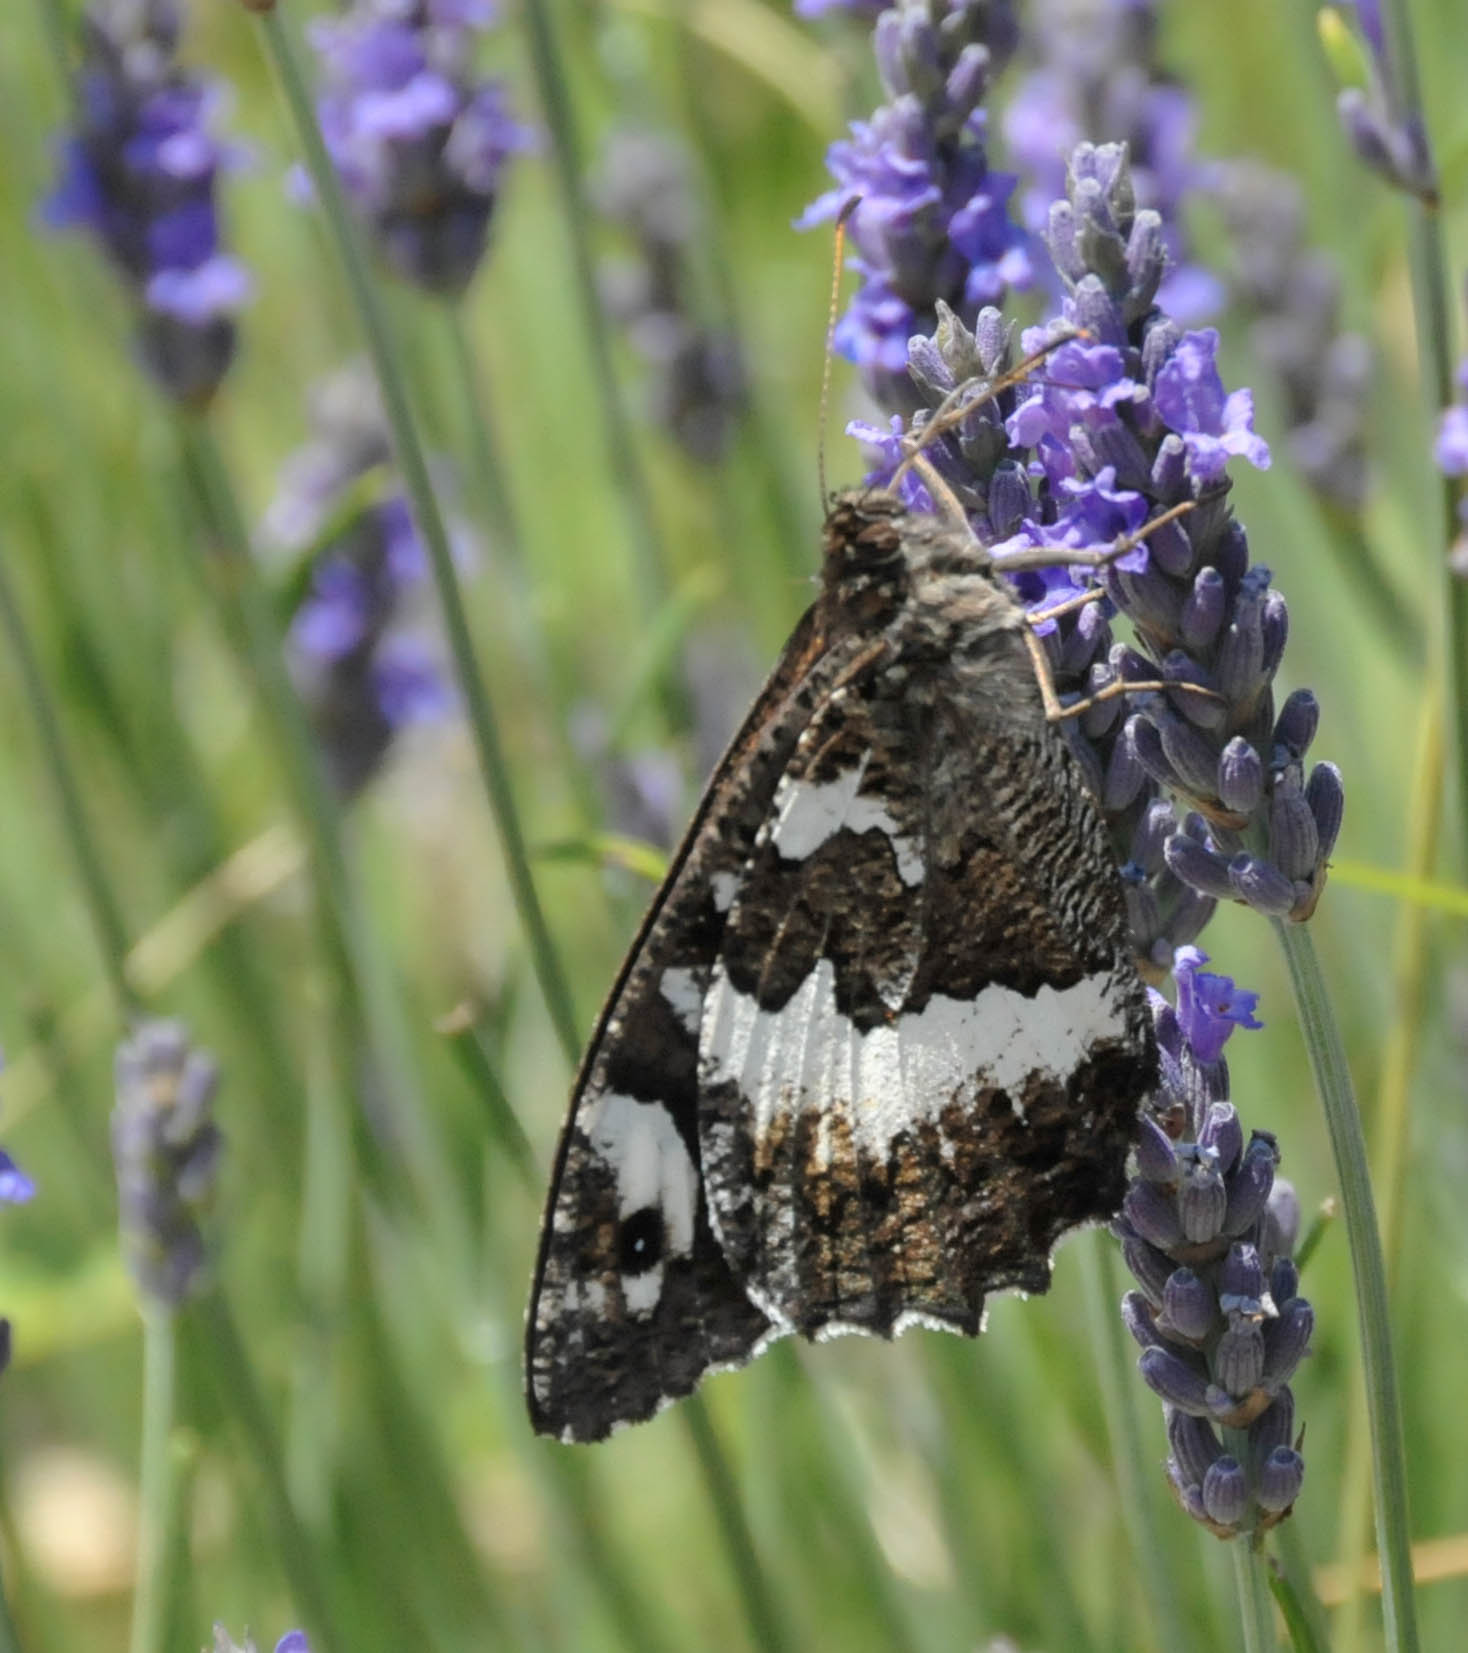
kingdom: Animalia
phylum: Arthropoda
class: Insecta
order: Lepidoptera
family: Lycaenidae
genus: Loweia
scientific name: Loweia tityrus
